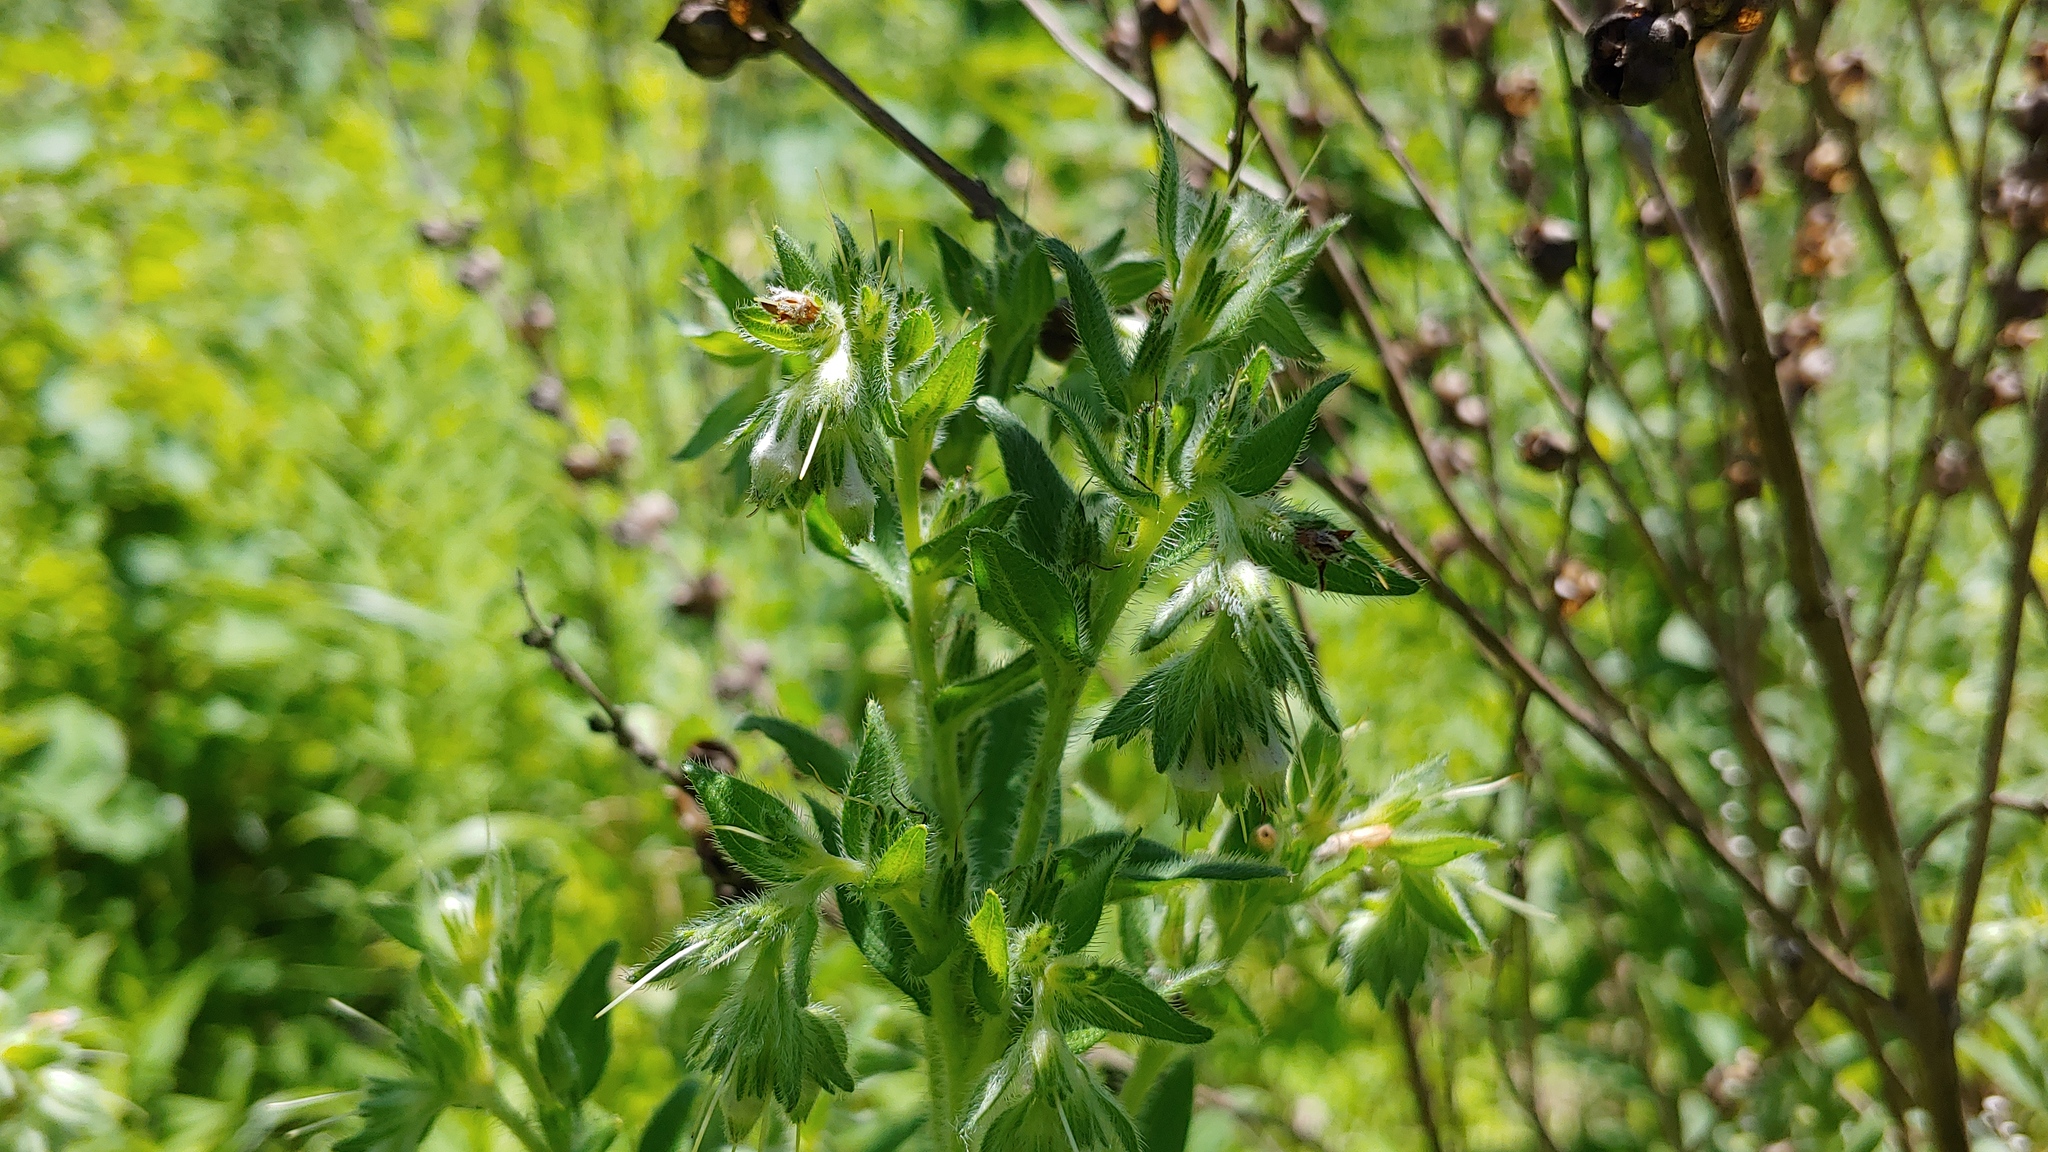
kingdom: Plantae
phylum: Tracheophyta
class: Magnoliopsida
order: Boraginales
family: Boraginaceae
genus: Lithospermum
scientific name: Lithospermum parviflorum
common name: Hairy false gromwell
